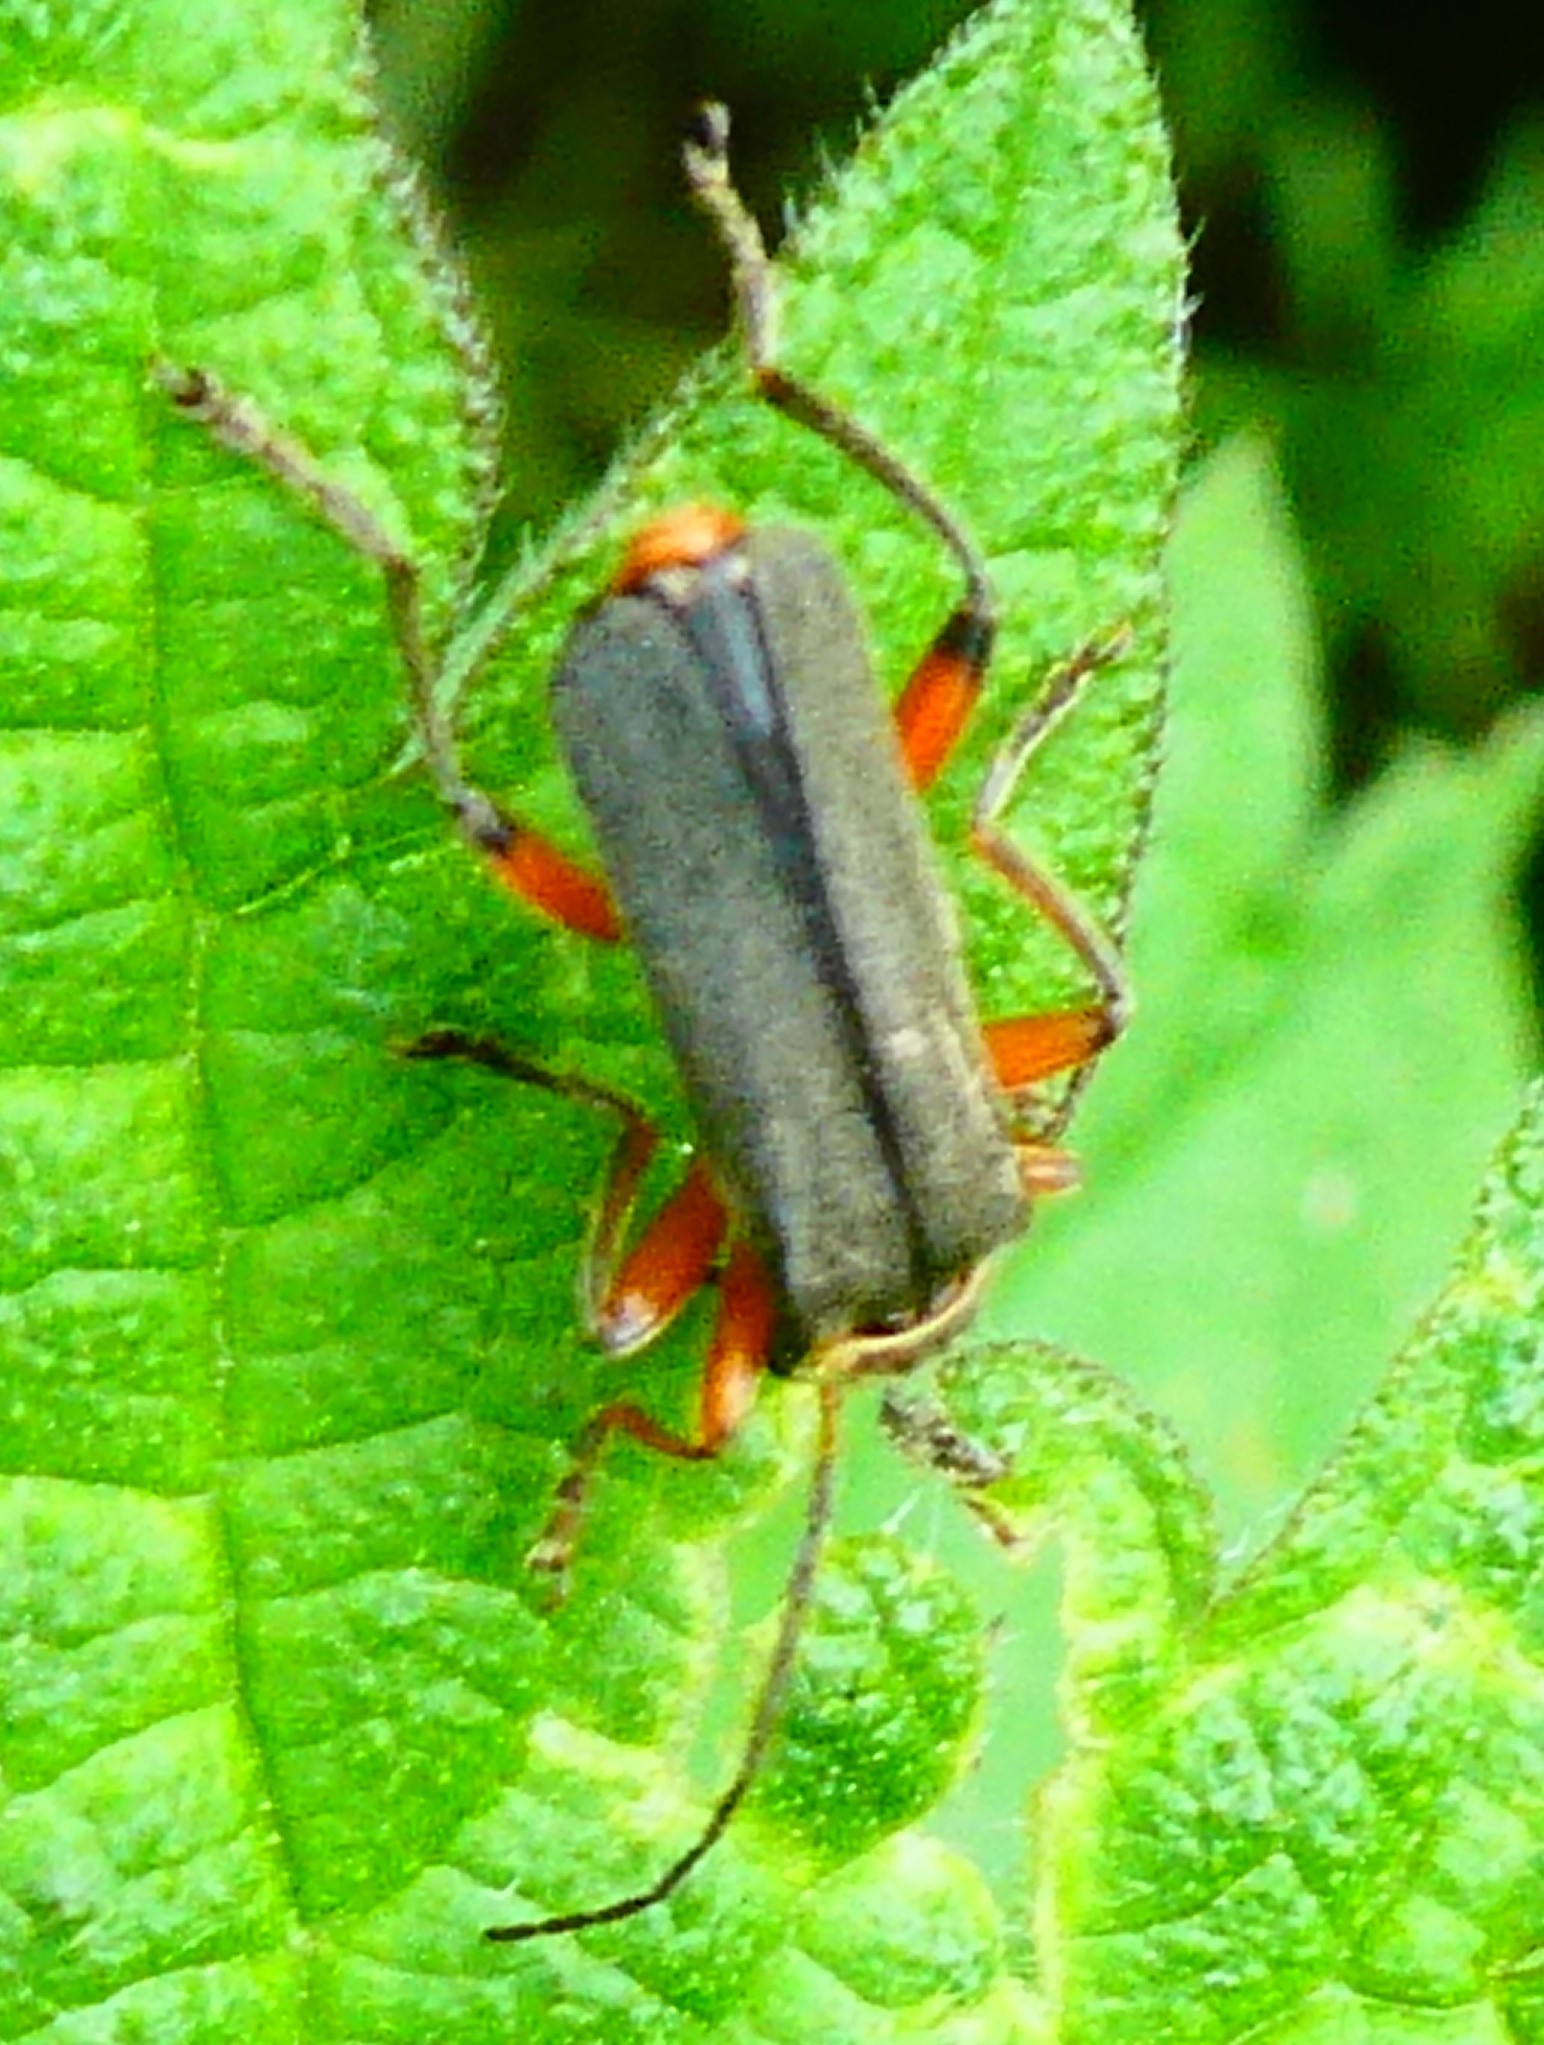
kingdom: Animalia
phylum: Arthropoda
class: Insecta
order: Coleoptera
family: Cantharidae
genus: Cantharis
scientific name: Cantharis nigricans
